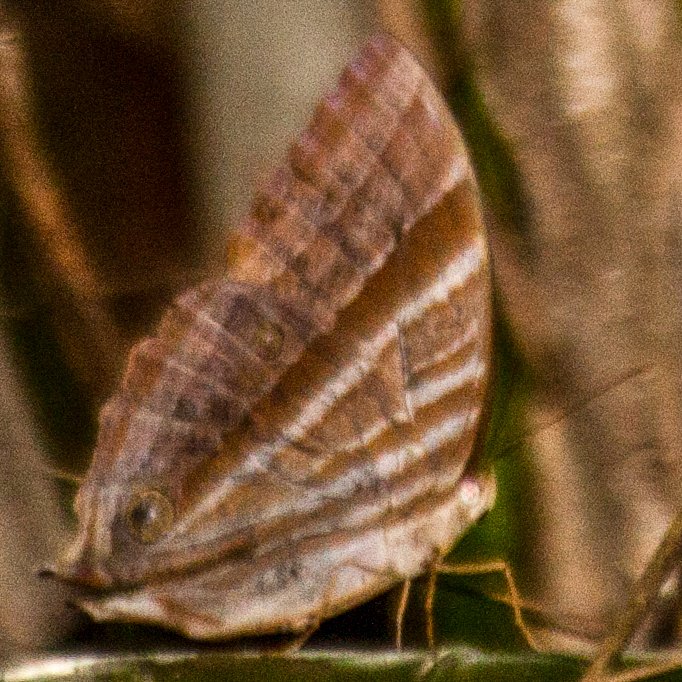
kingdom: Animalia
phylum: Arthropoda
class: Insecta
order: Lepidoptera
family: Nymphalidae
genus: Amathusia
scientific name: Amathusia phidippus
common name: Palm king
